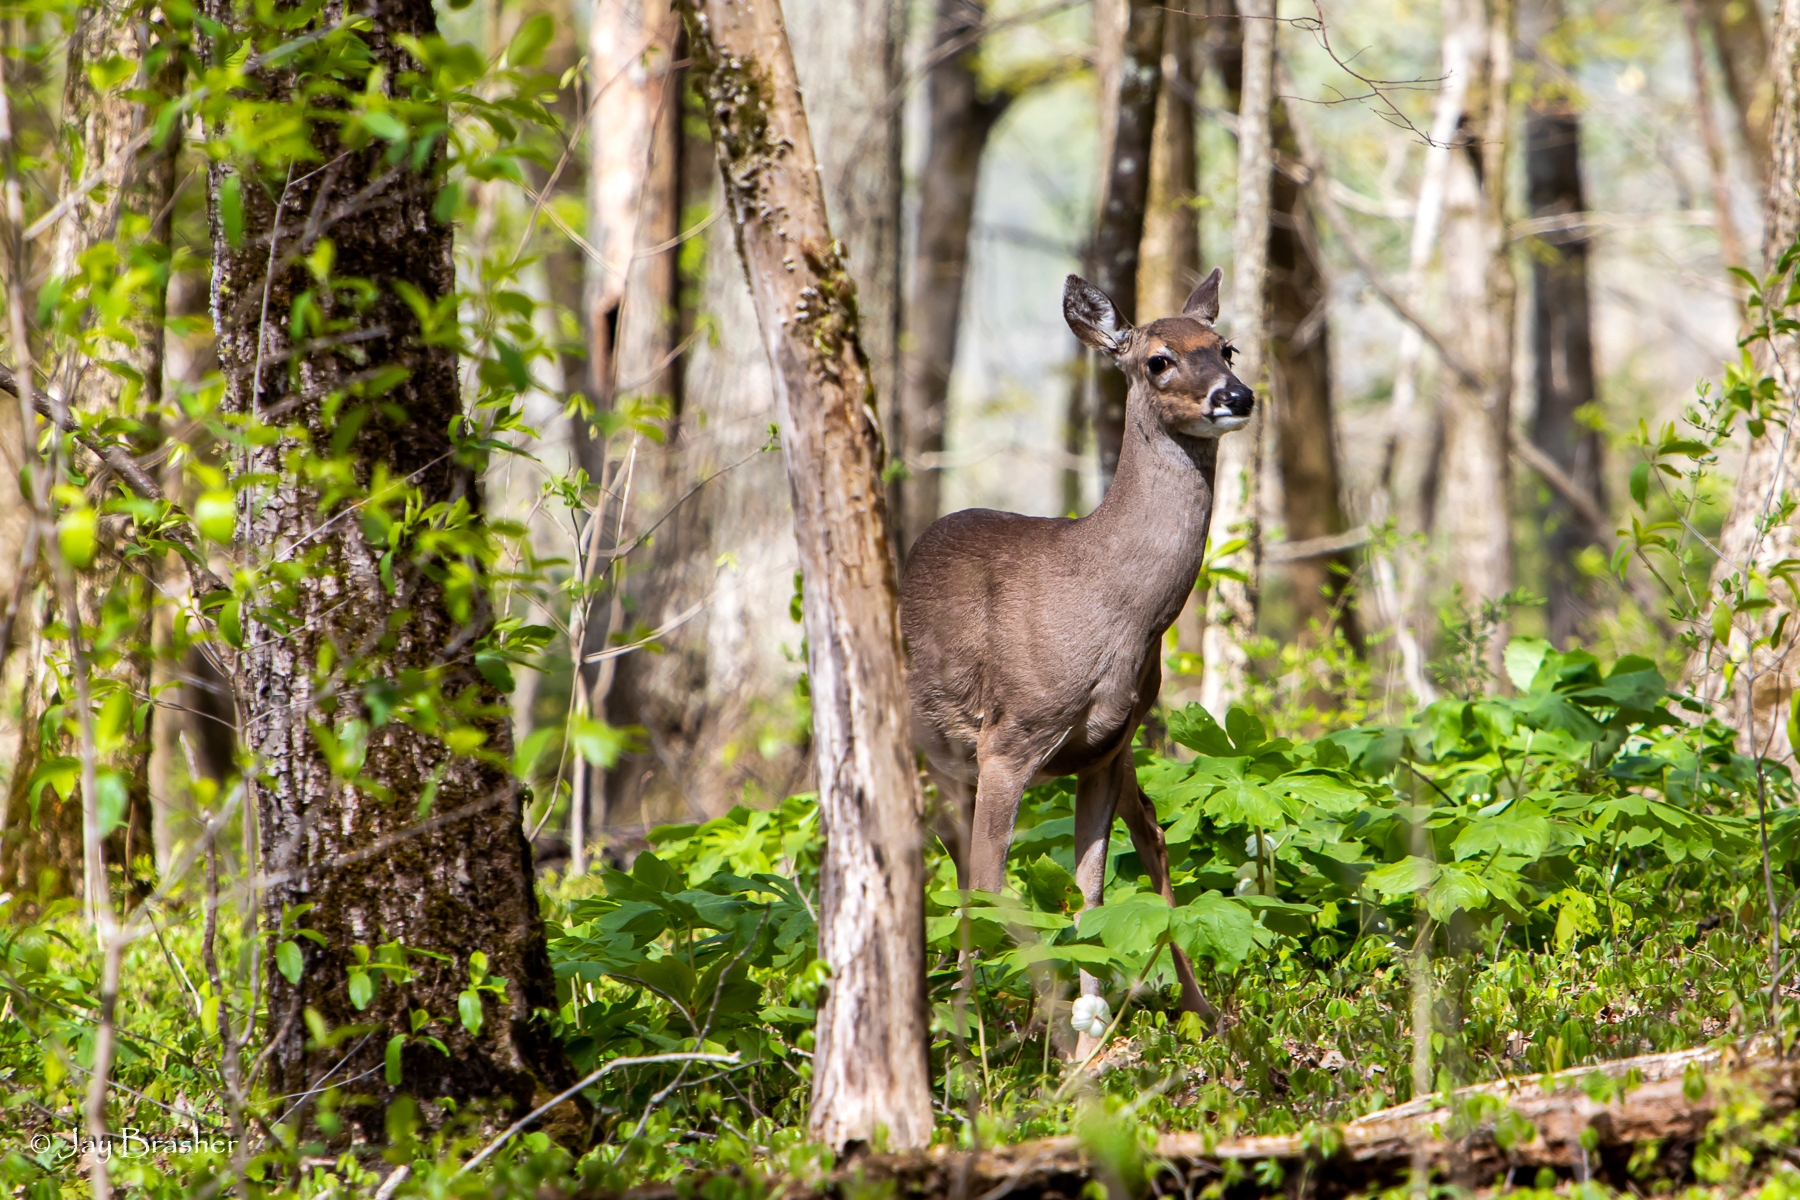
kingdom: Animalia
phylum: Chordata
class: Mammalia
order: Artiodactyla
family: Cervidae
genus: Odocoileus
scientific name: Odocoileus virginianus
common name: White-tailed deer
